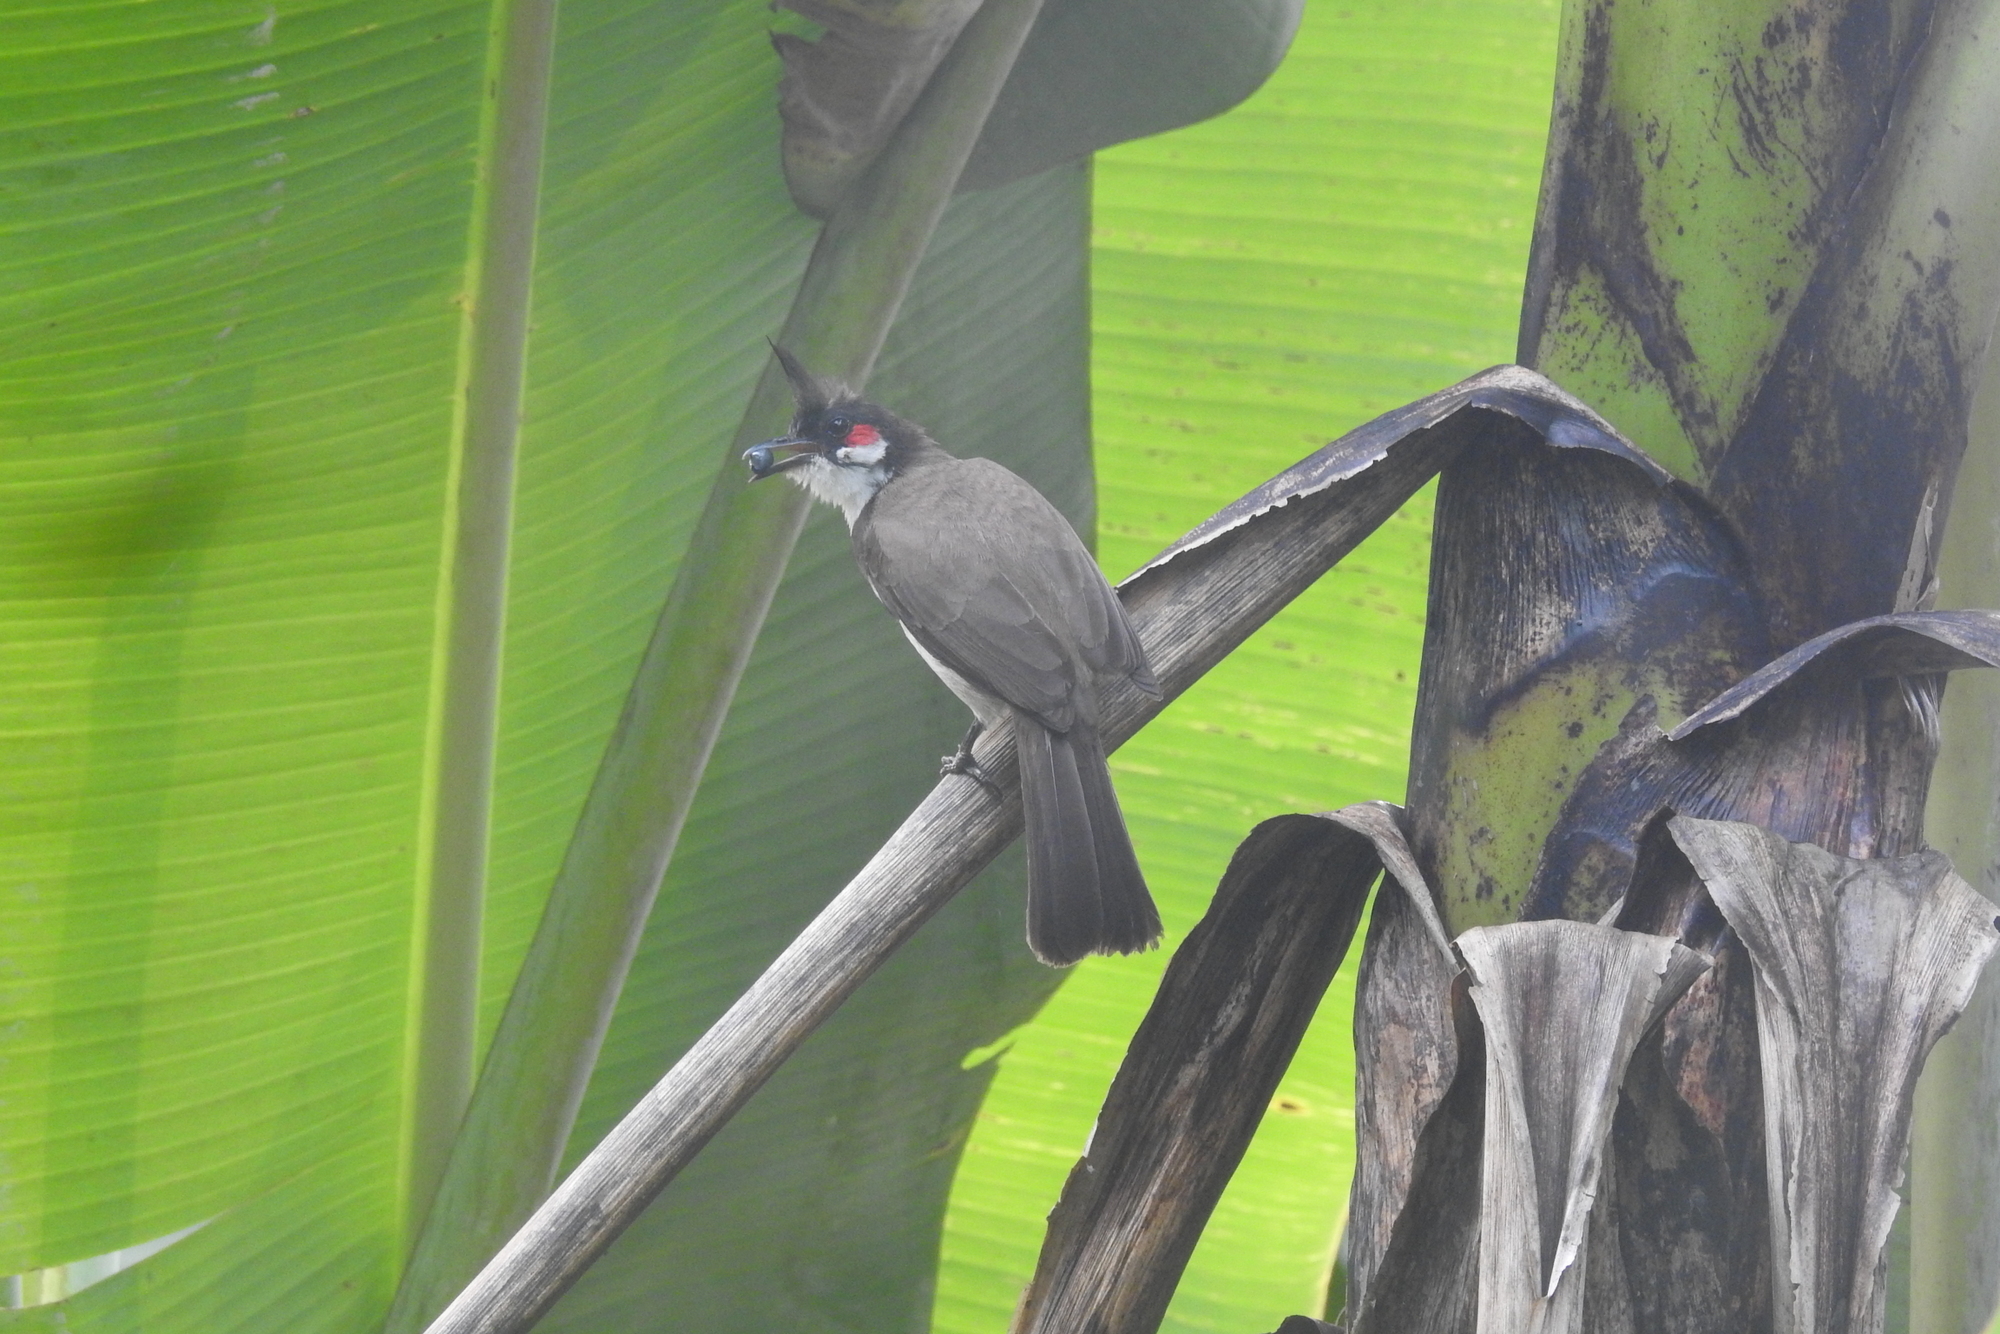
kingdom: Animalia
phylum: Chordata
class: Aves
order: Passeriformes
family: Pycnonotidae
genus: Pycnonotus
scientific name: Pycnonotus jocosus
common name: Red-whiskered bulbul
